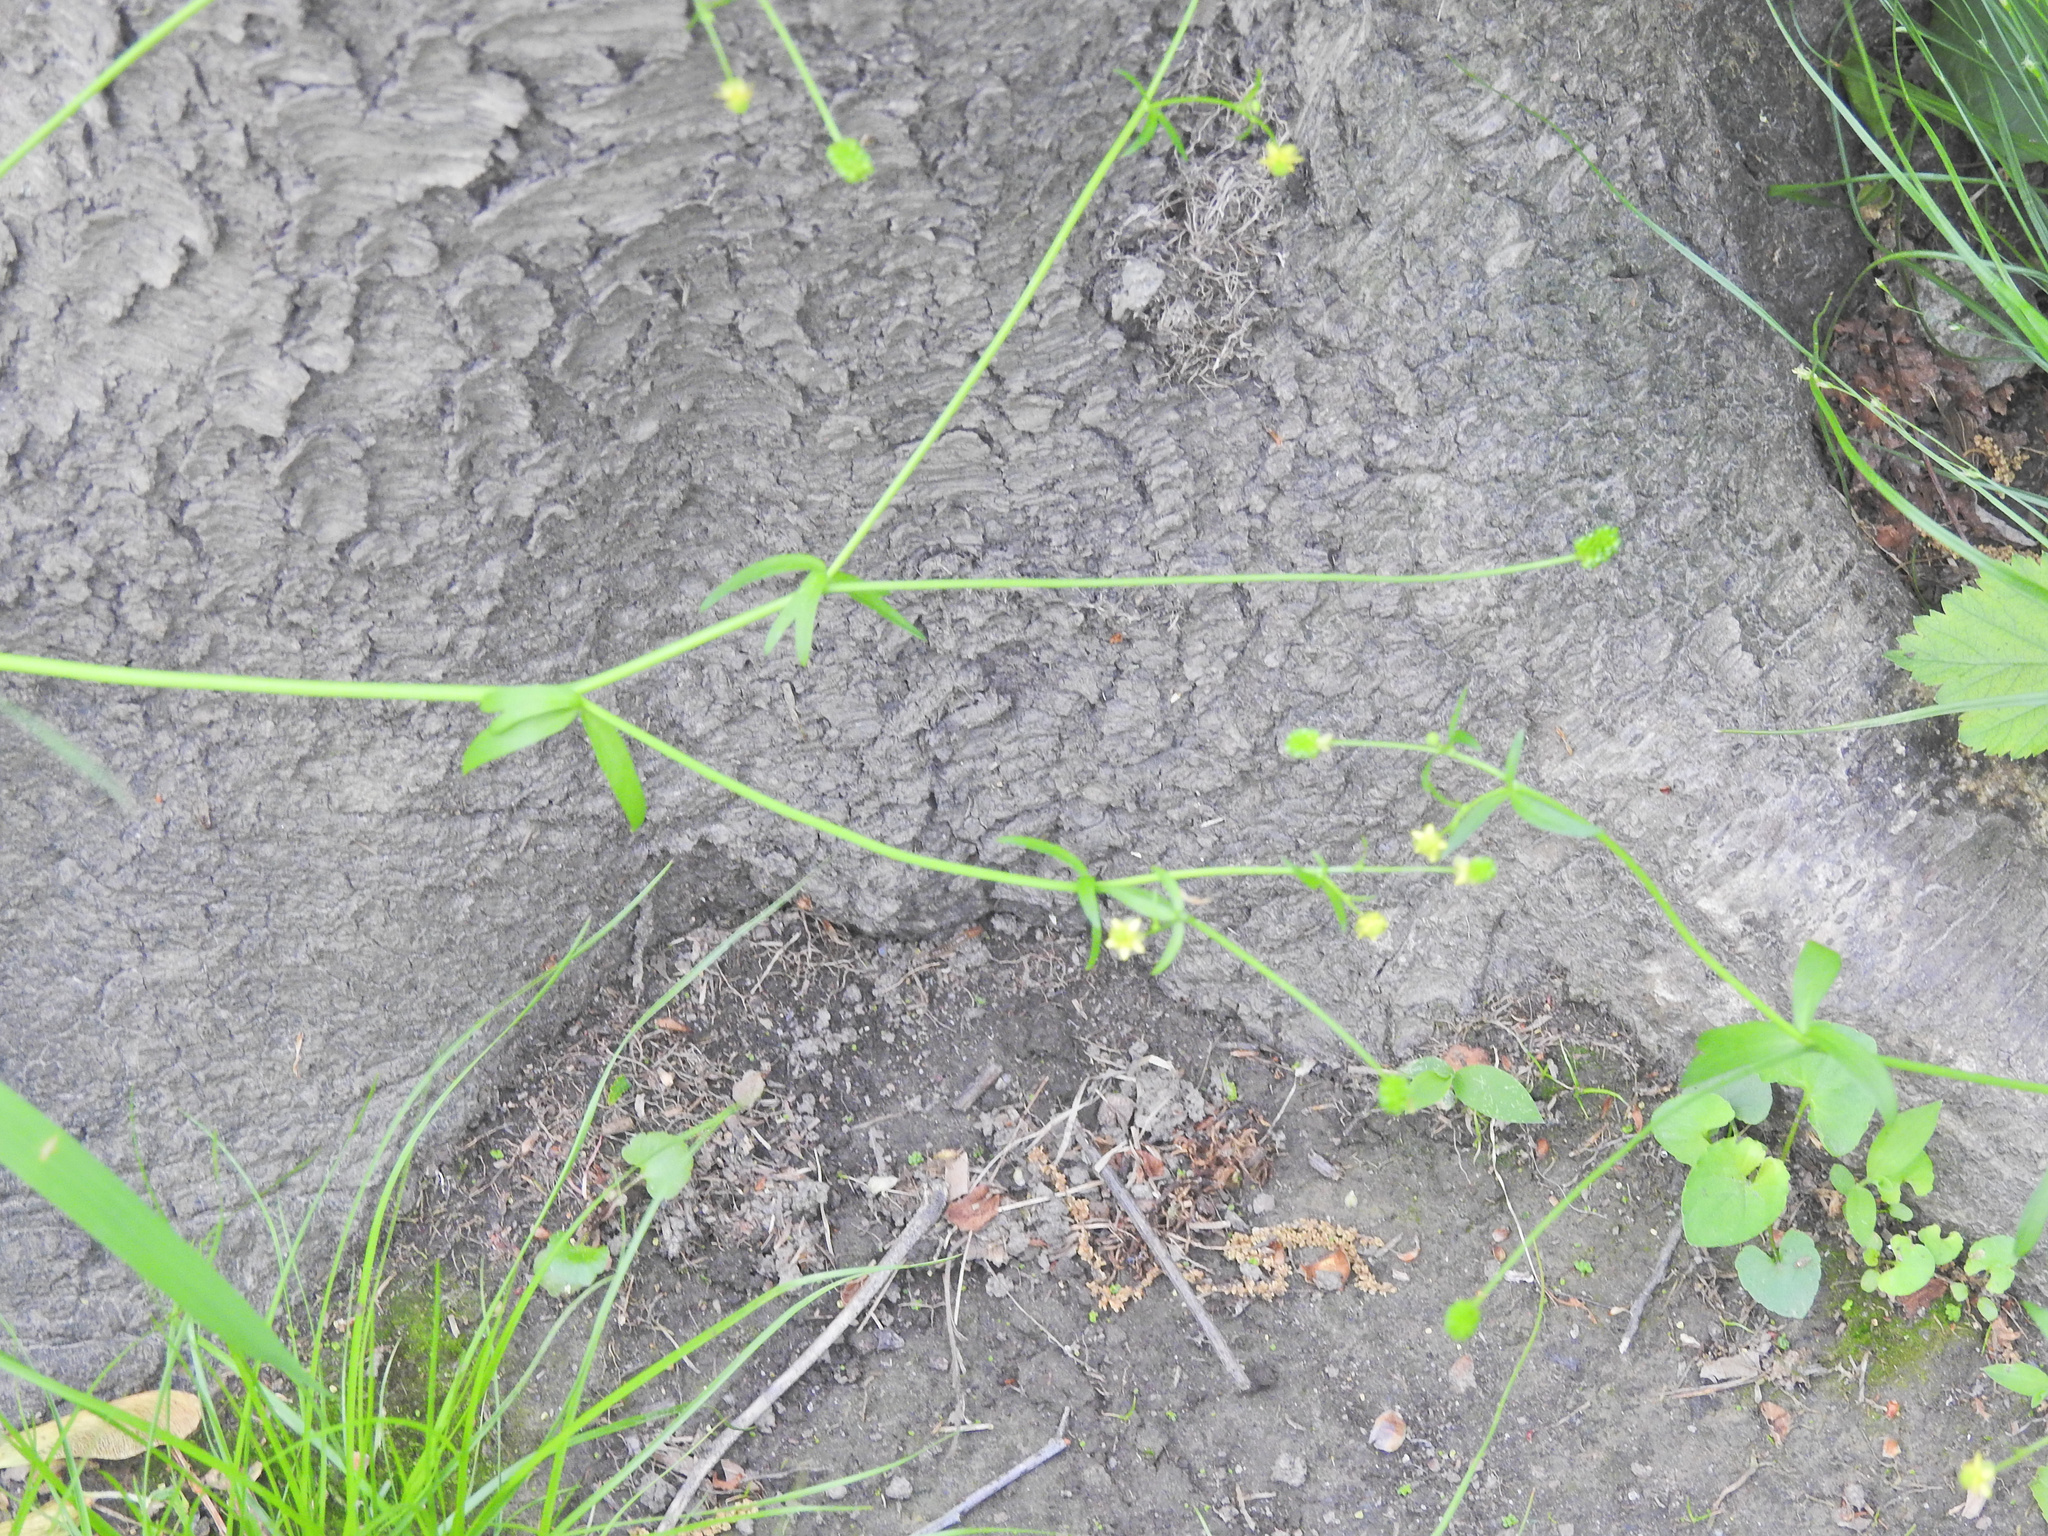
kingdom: Plantae
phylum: Tracheophyta
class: Magnoliopsida
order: Ranunculales
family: Ranunculaceae
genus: Ranunculus
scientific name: Ranunculus abortivus
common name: Early wood buttercup
